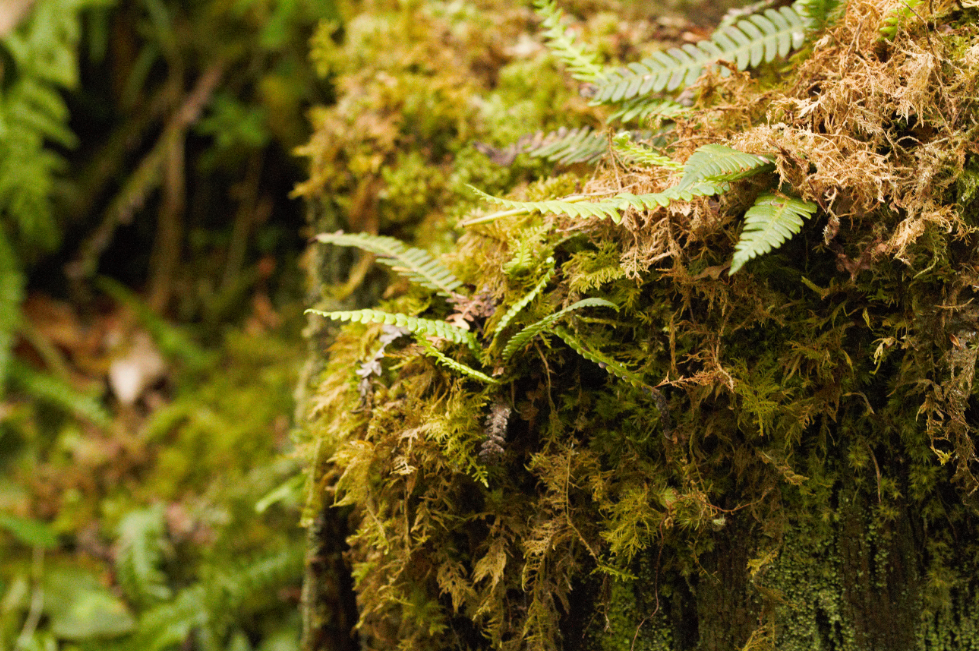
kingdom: Plantae
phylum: Tracheophyta
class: Polypodiopsida
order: Polypodiales
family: Blechnaceae
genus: Struthiopteris
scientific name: Struthiopteris spicant
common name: Deer fern
